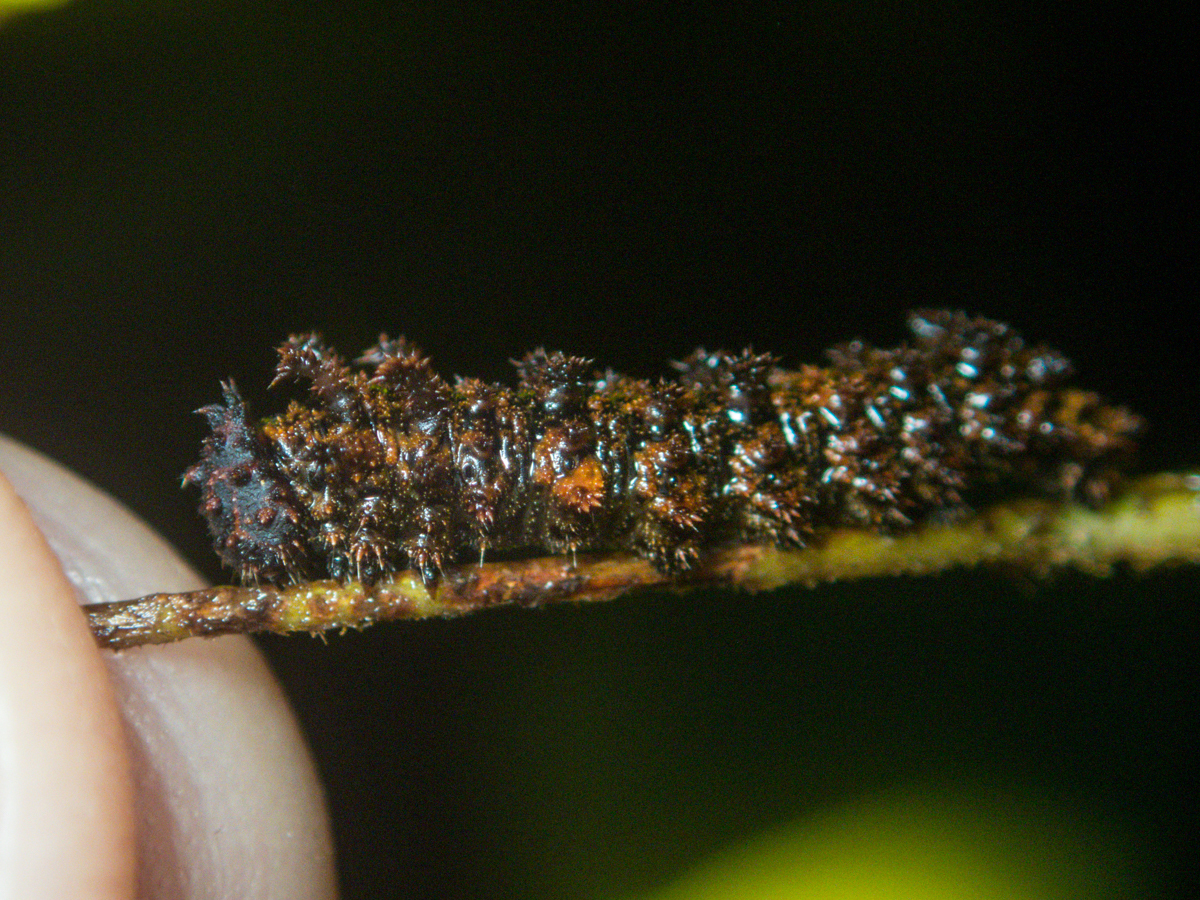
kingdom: Animalia
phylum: Arthropoda
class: Insecta
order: Lepidoptera
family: Nymphalidae
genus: Limenitis
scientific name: Limenitis Moduza procris
